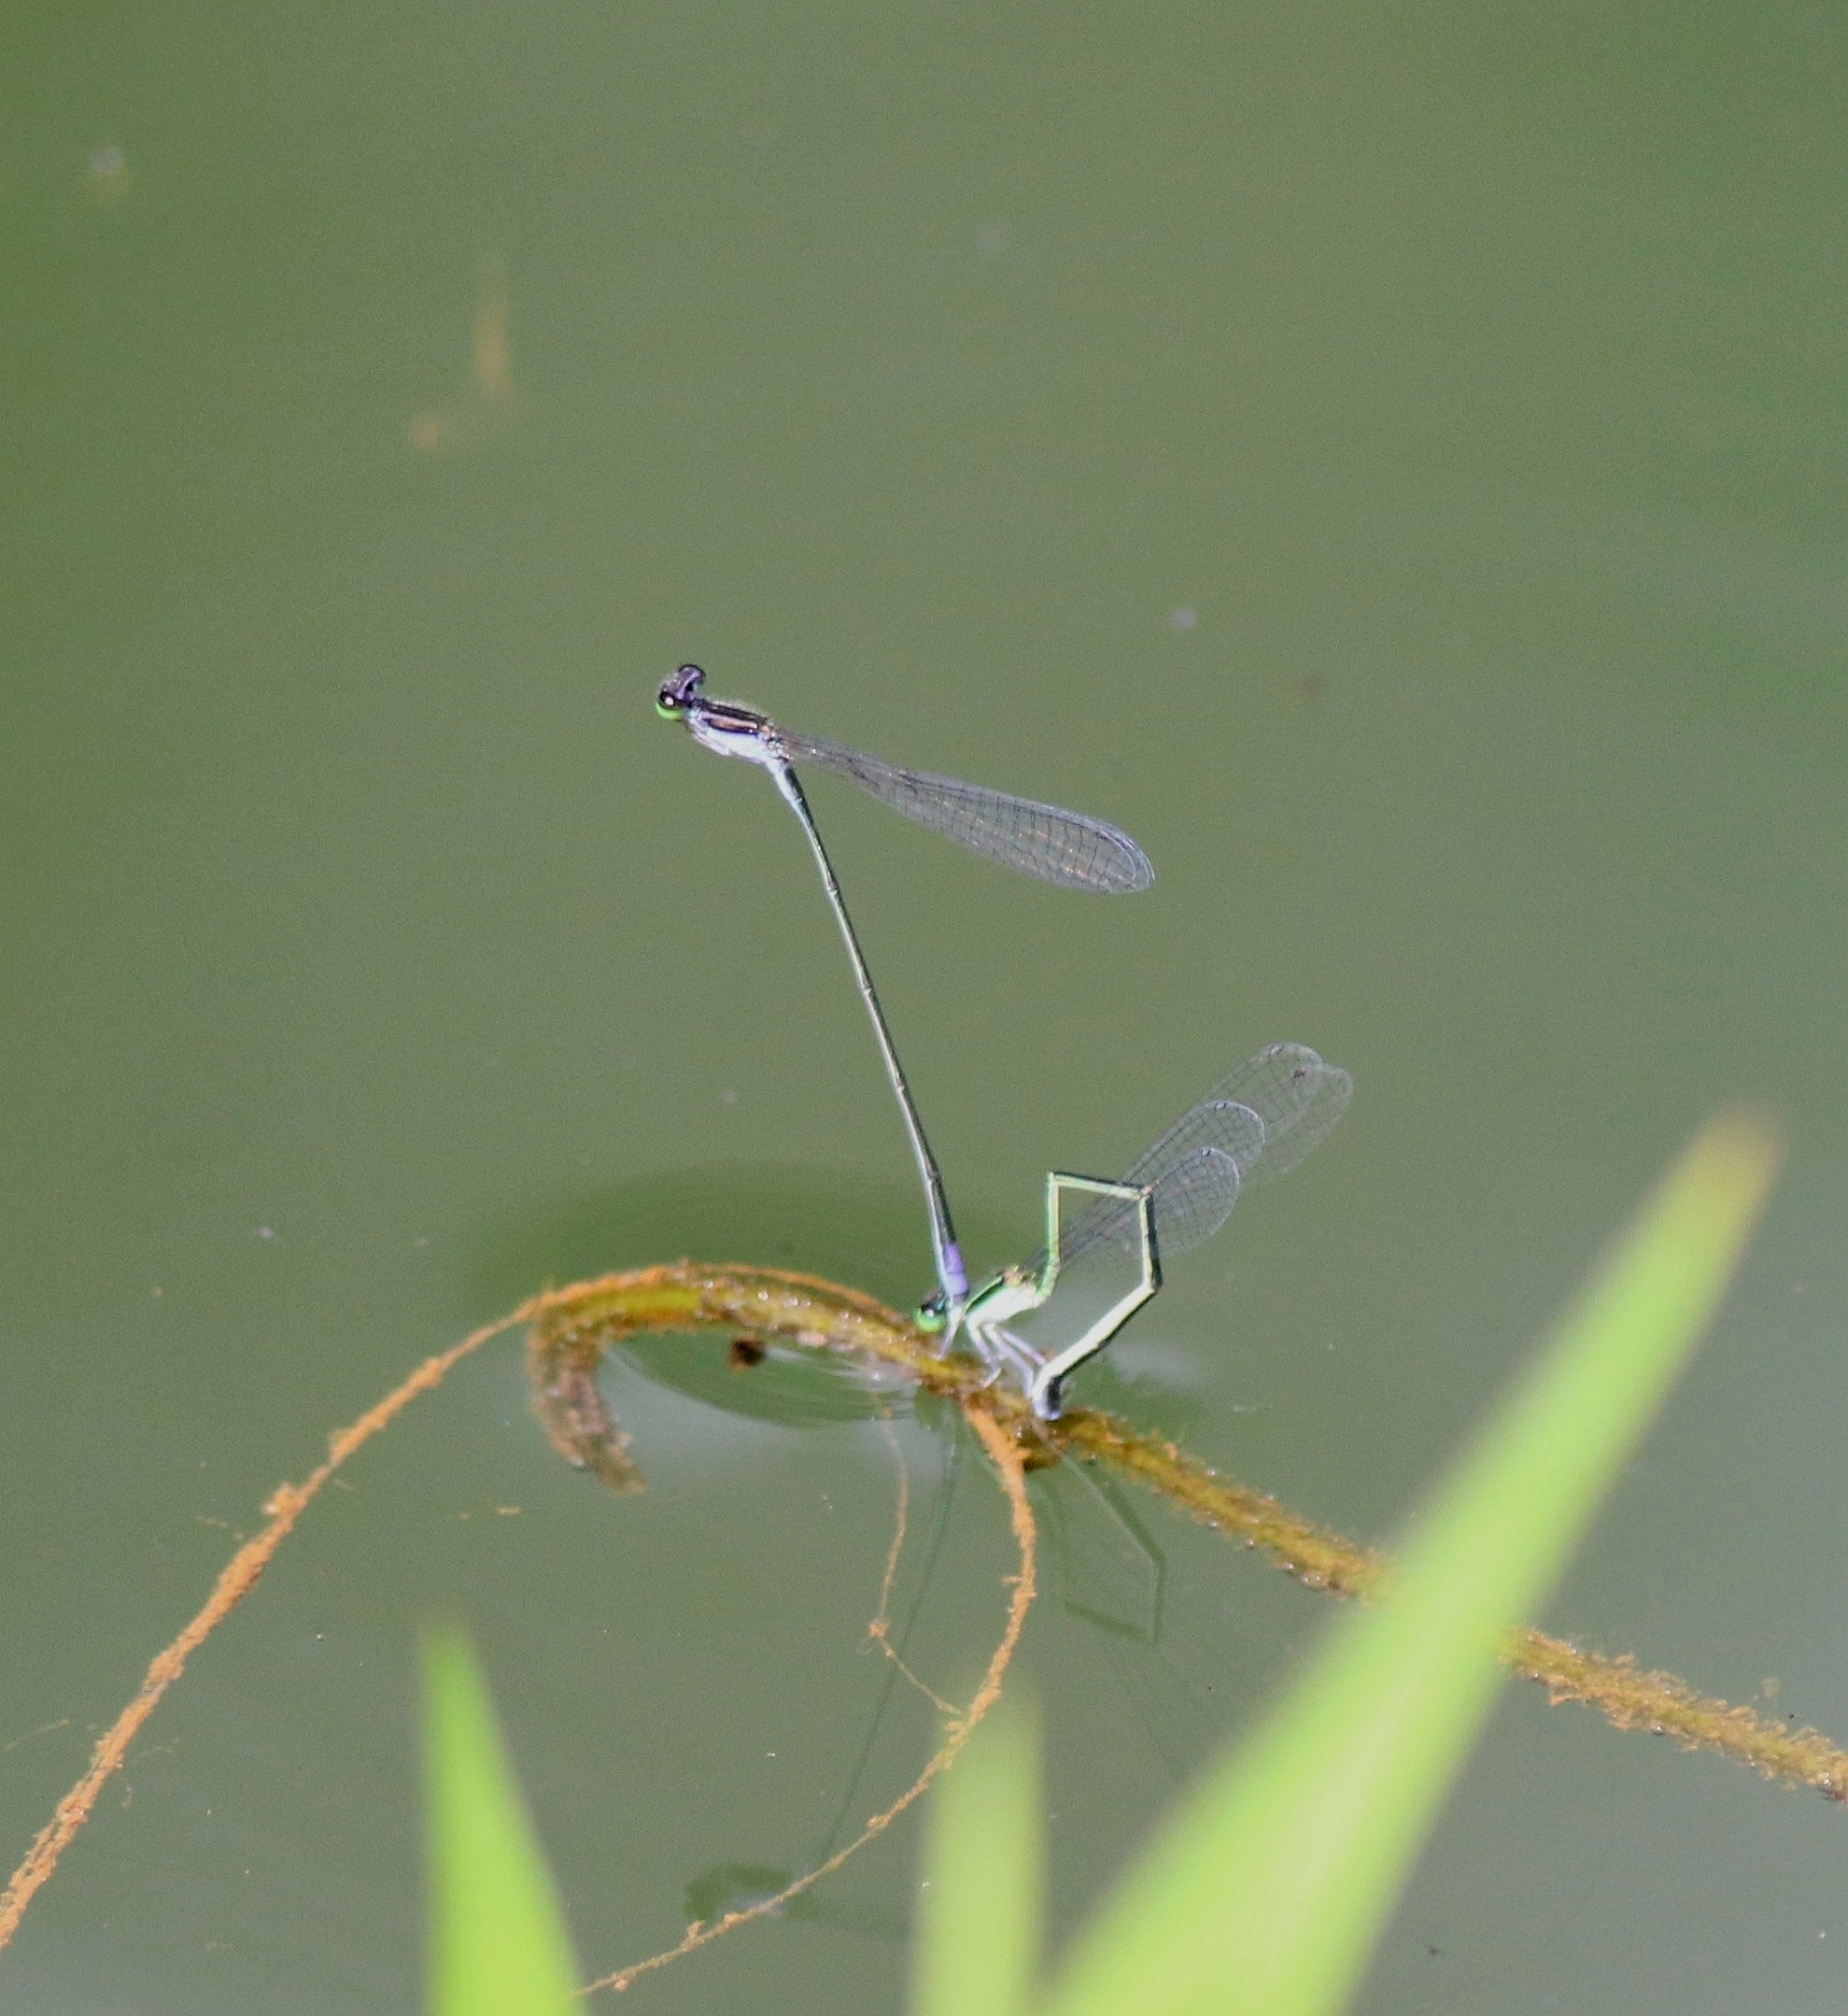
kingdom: Animalia
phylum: Arthropoda
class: Insecta
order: Odonata
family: Coenagrionidae
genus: Aciagrion
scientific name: Aciagrion approximans
